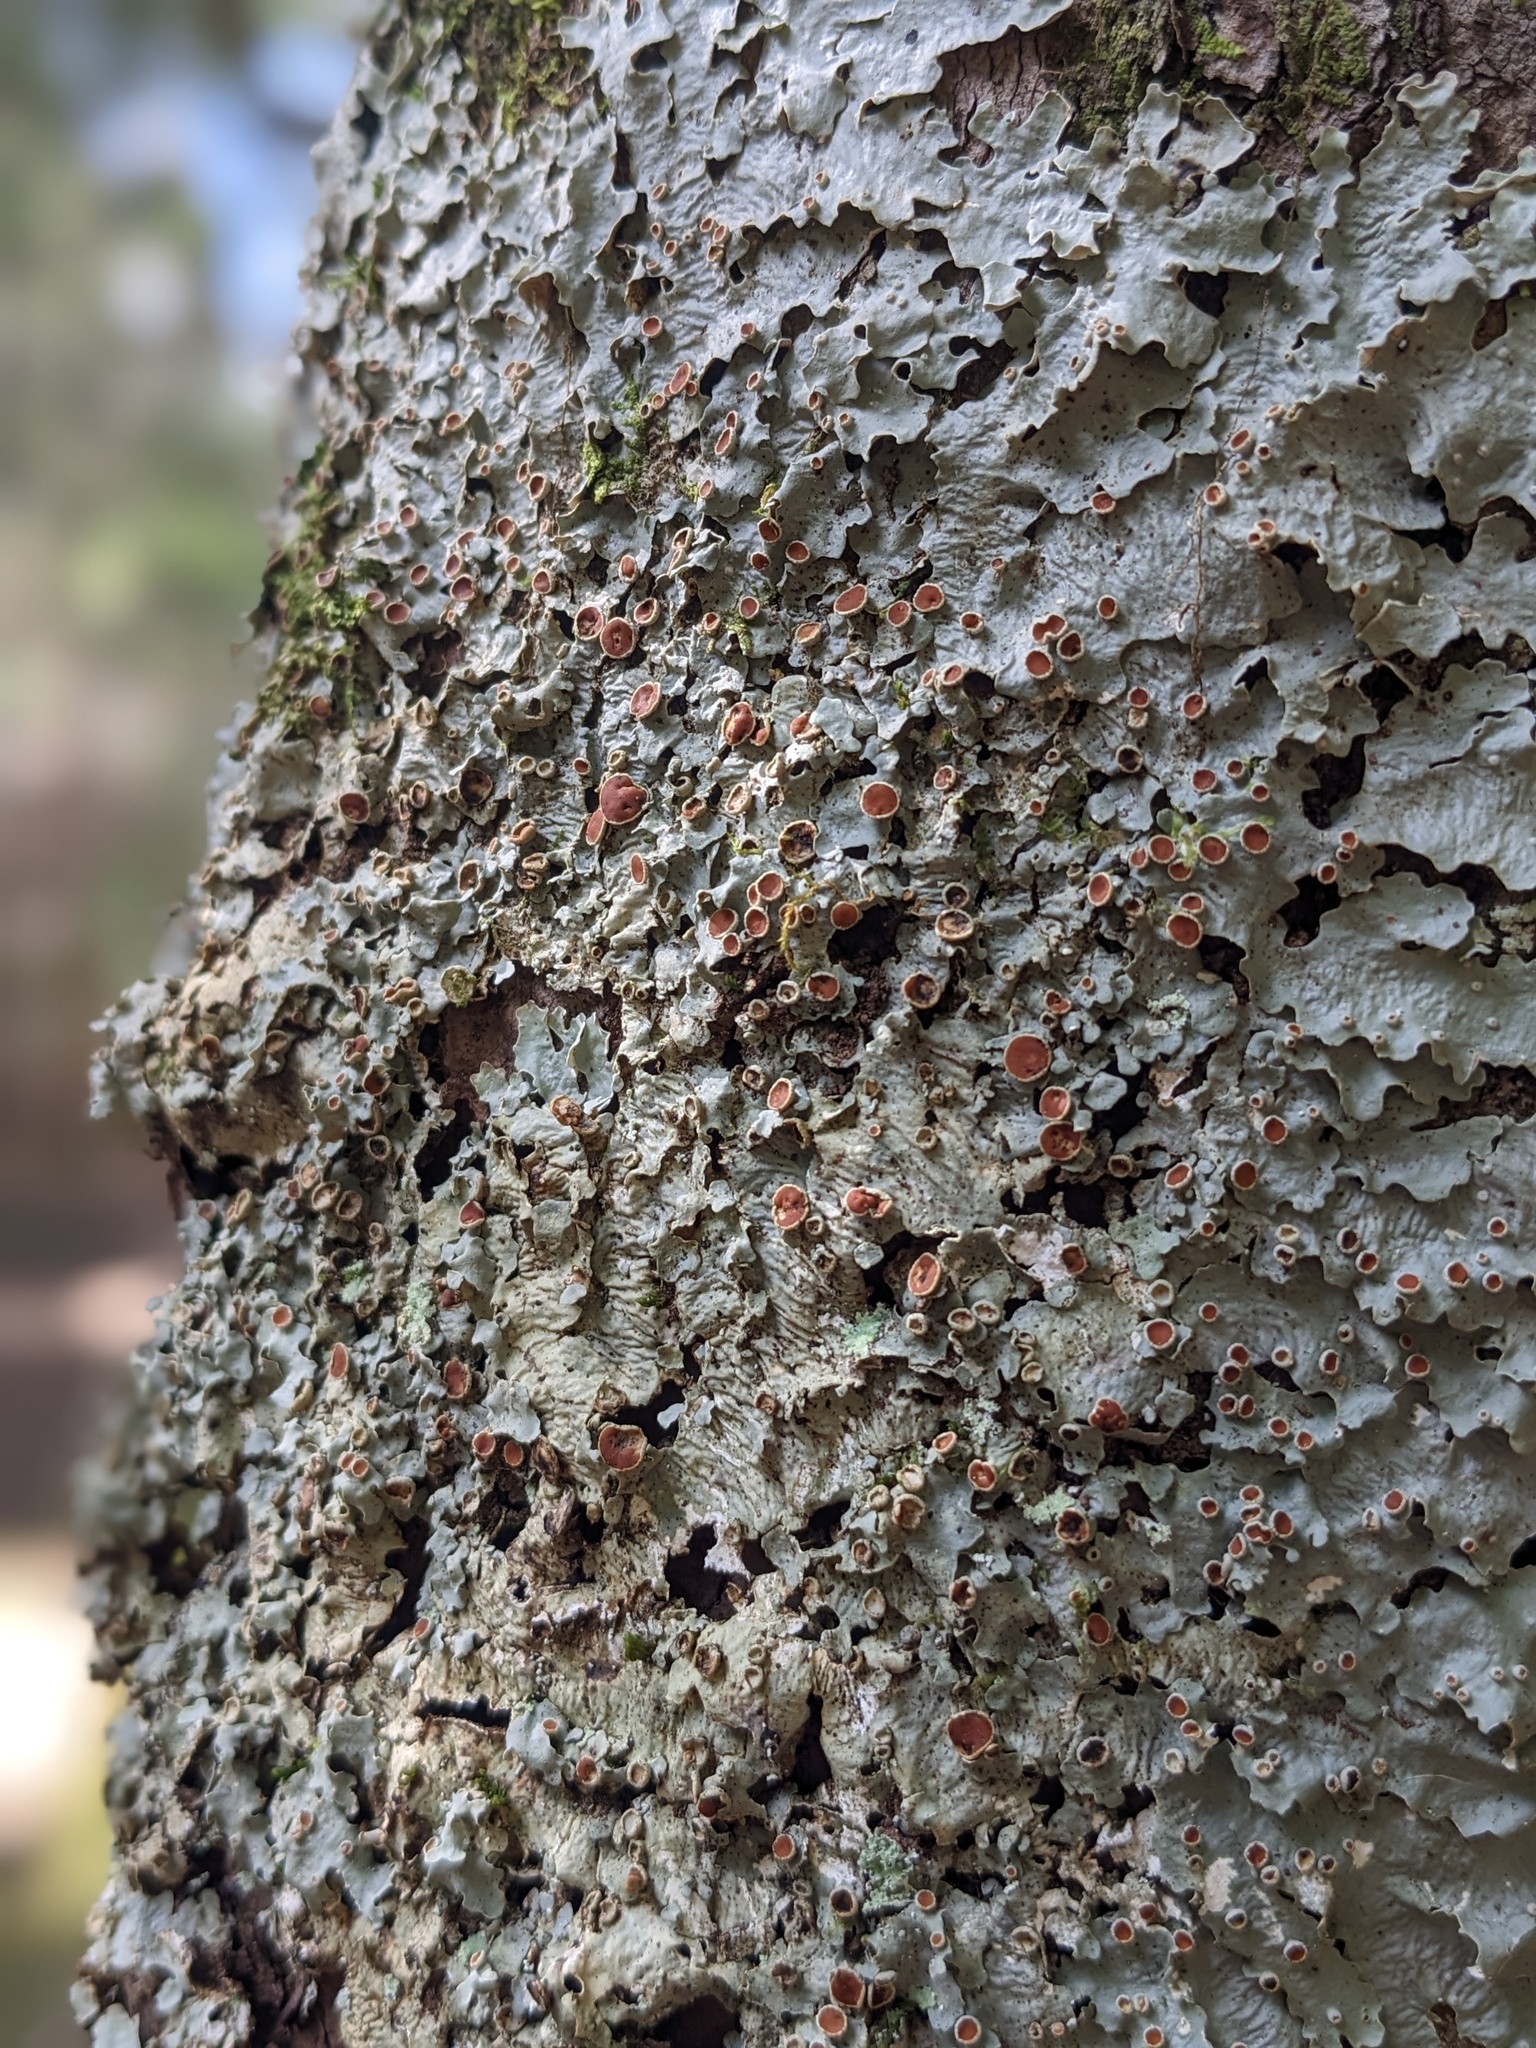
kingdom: Fungi
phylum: Ascomycota
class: Lecanoromycetes
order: Lecanorales
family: Parmeliaceae
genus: Parmelia
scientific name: Parmelia squarrosa
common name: Bottle brush shield lichen
